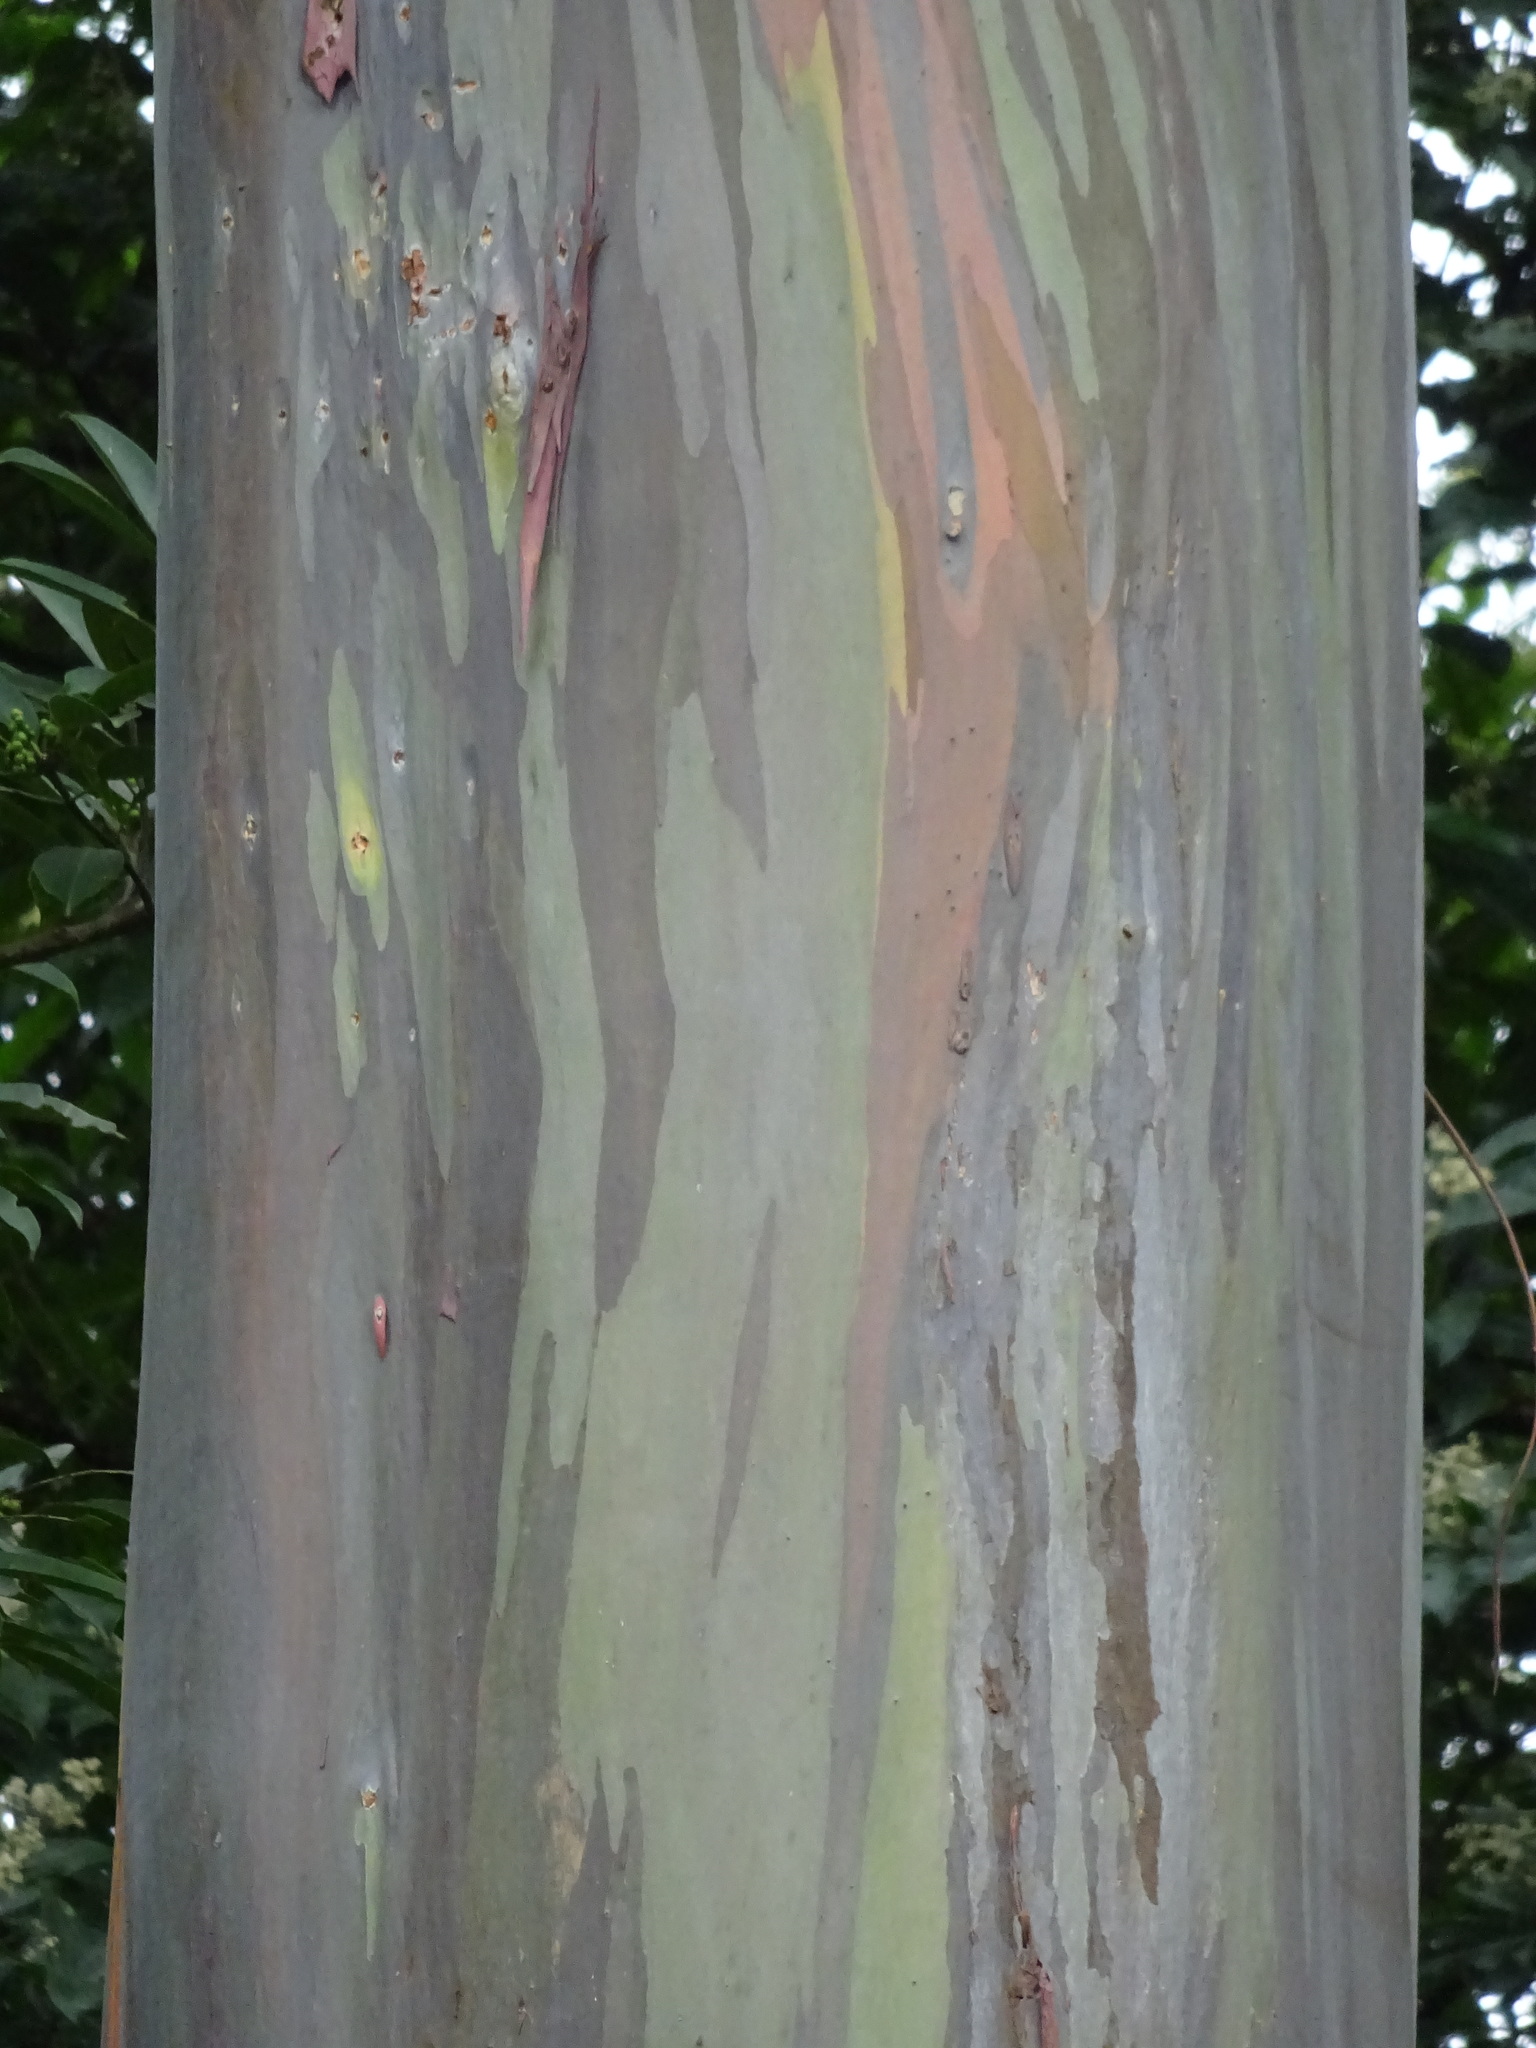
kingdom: Plantae
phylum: Tracheophyta
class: Magnoliopsida
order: Myrtales
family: Myrtaceae
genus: Eucalyptus
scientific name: Eucalyptus deglupta
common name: Mindanao gum
